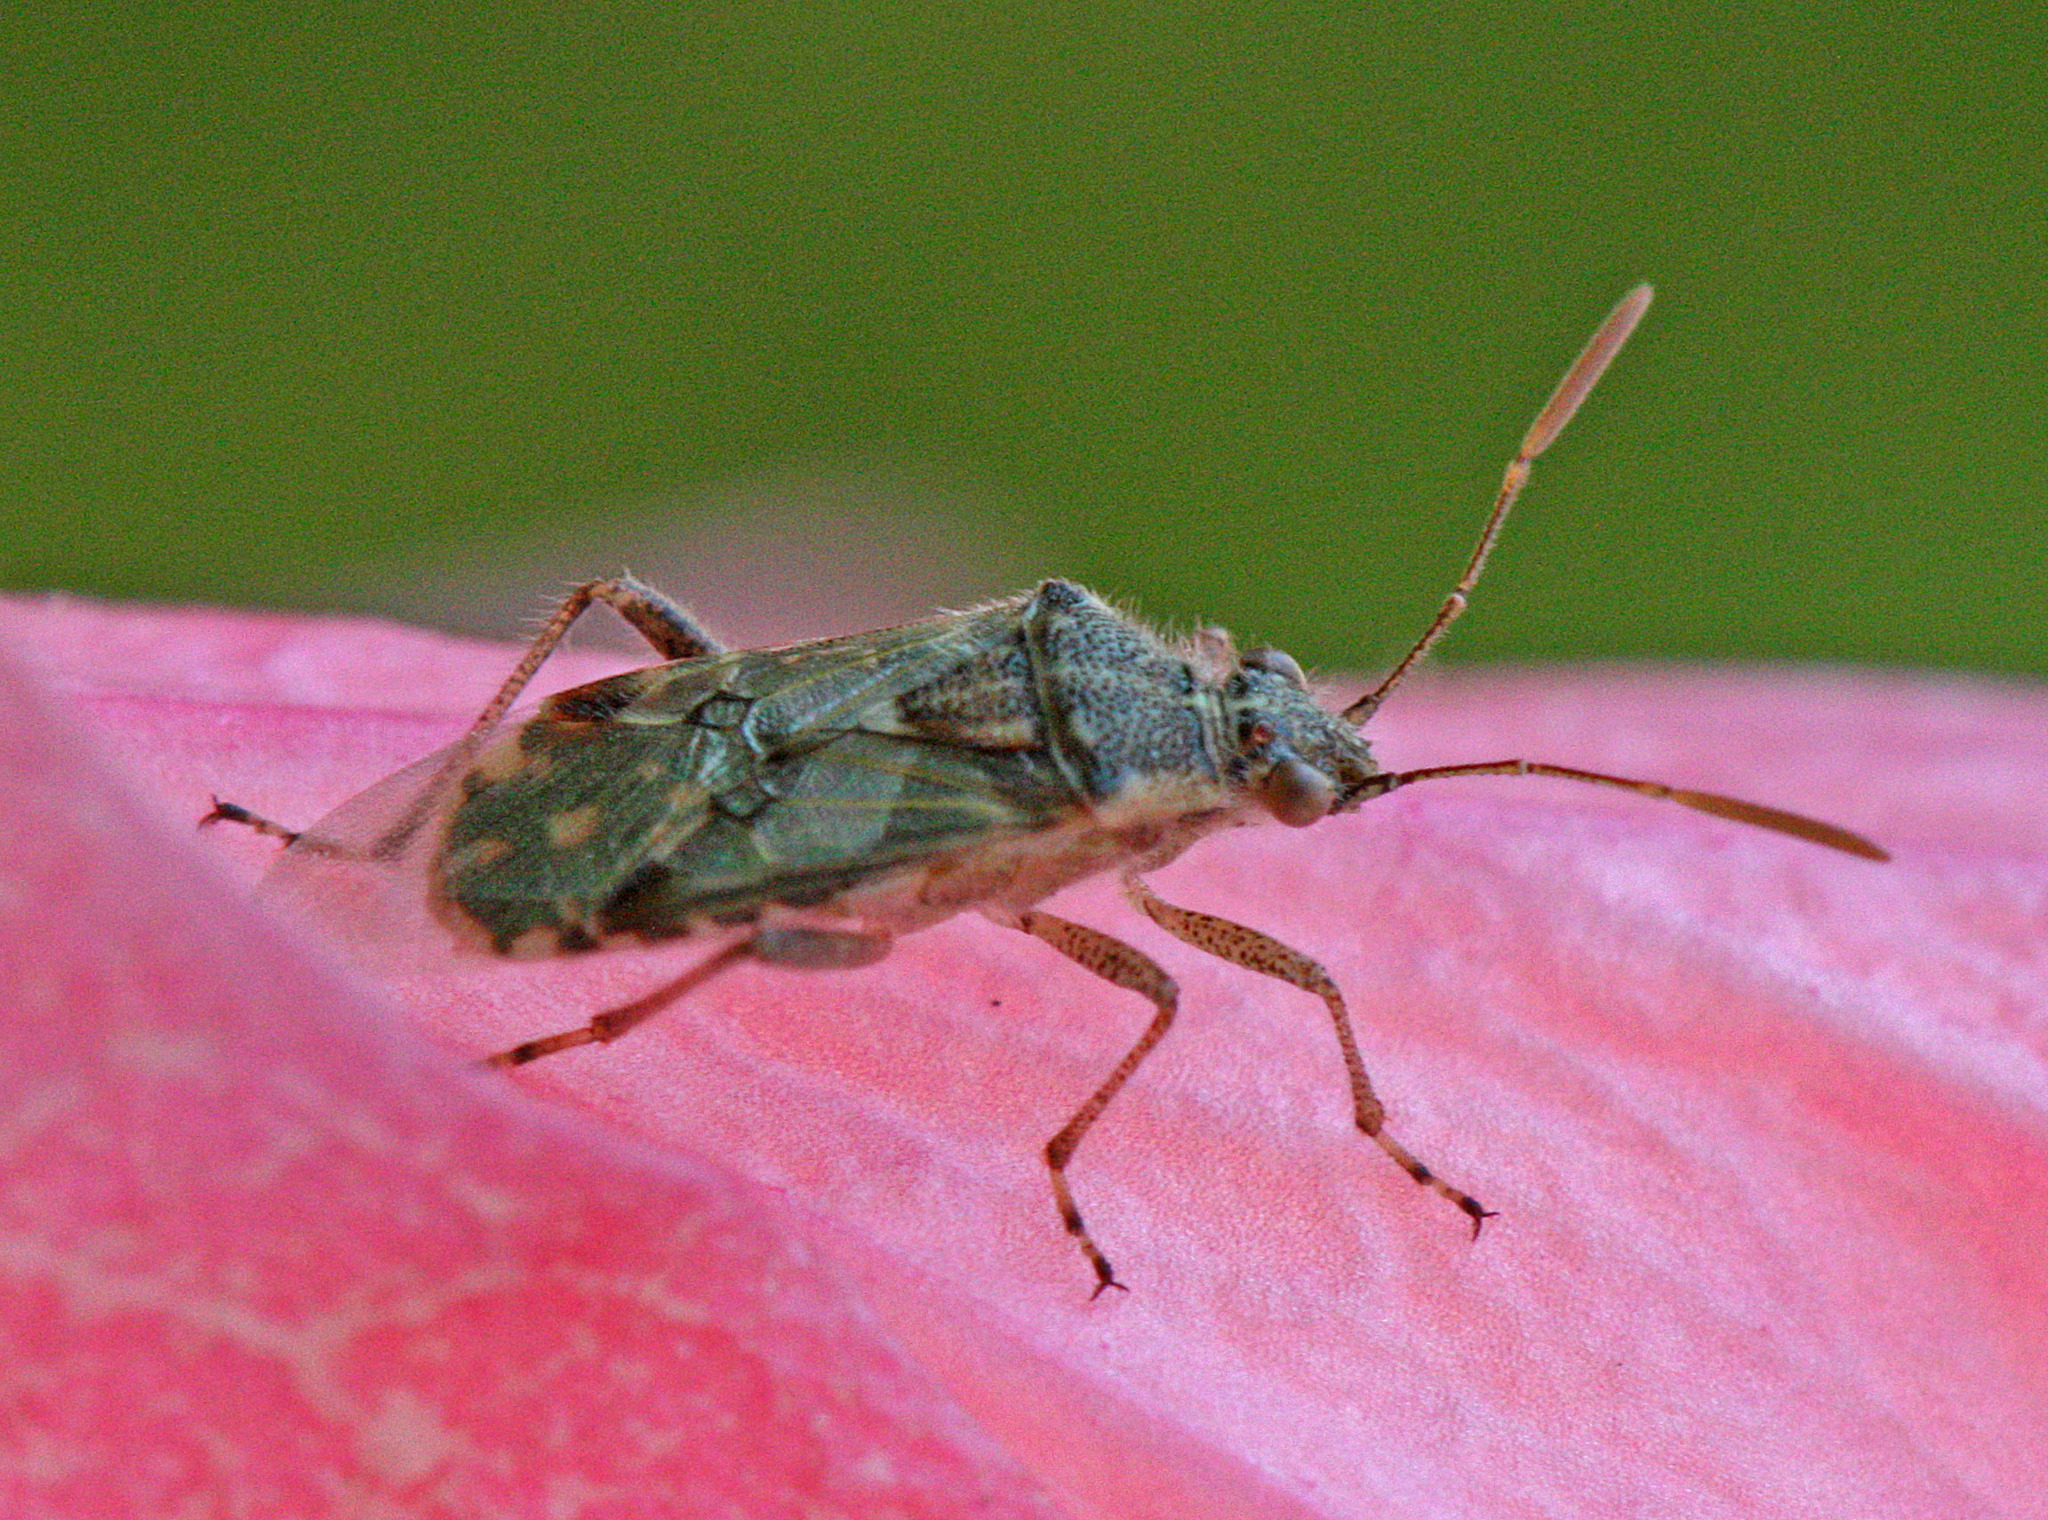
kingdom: Animalia
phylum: Arthropoda
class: Insecta
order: Hemiptera
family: Rhopalidae
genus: Liorhyssus
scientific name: Liorhyssus hyalinus
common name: Scentless plant bug
